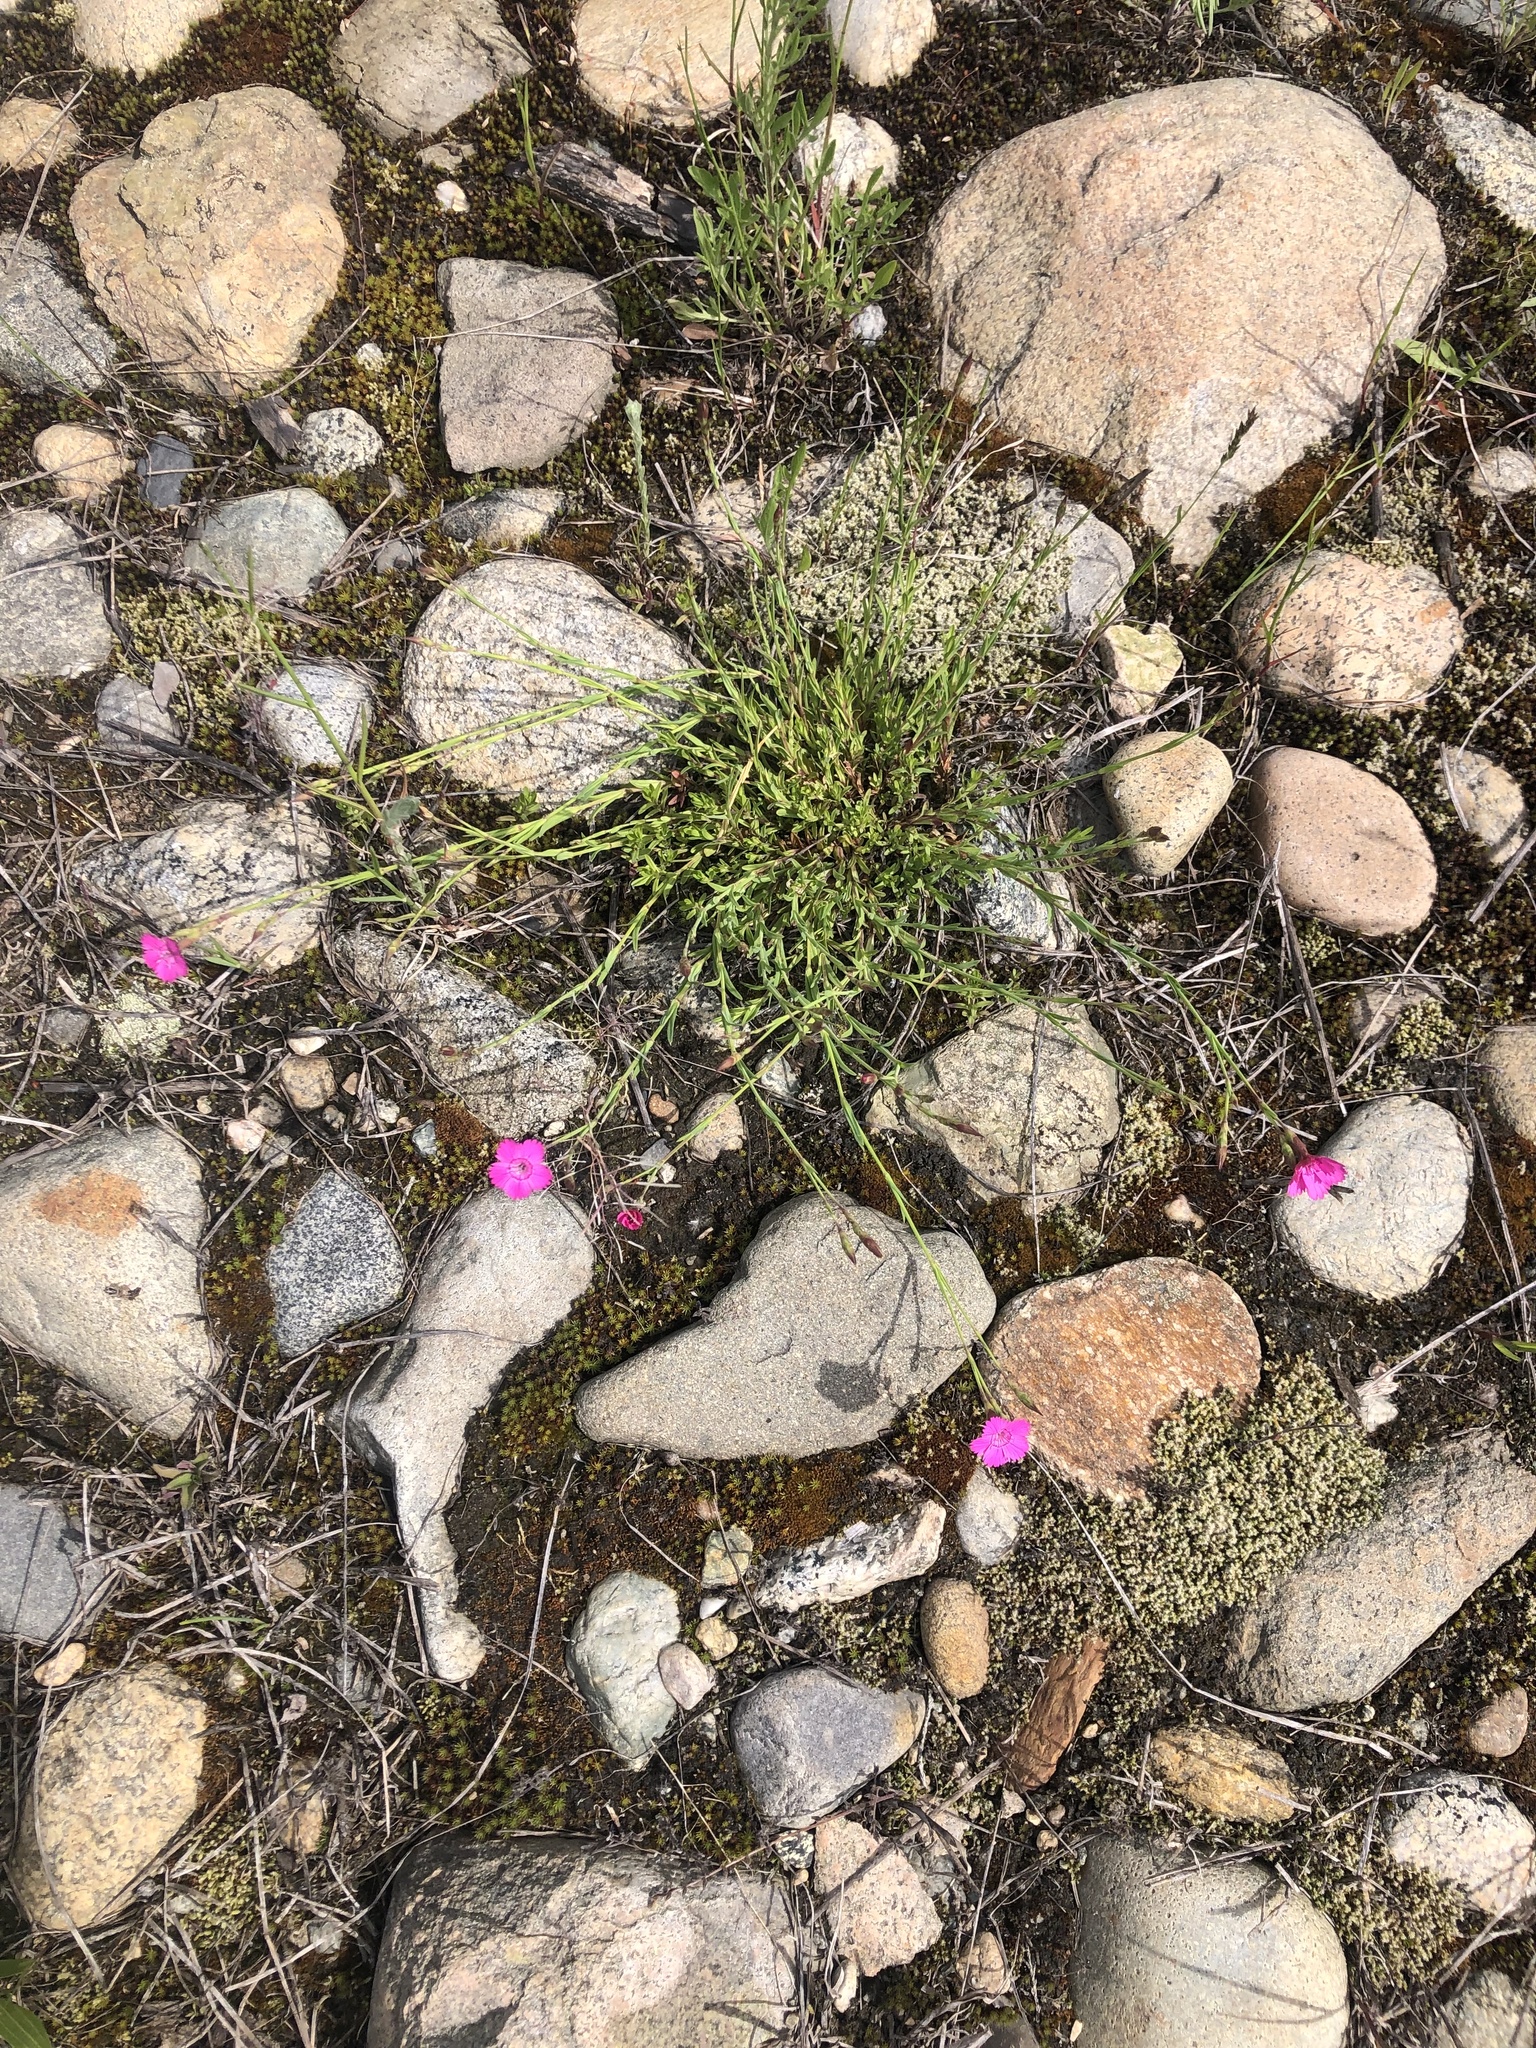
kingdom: Plantae
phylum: Tracheophyta
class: Magnoliopsida
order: Caryophyllales
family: Caryophyllaceae
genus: Dianthus
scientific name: Dianthus deltoides
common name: Maiden pink
